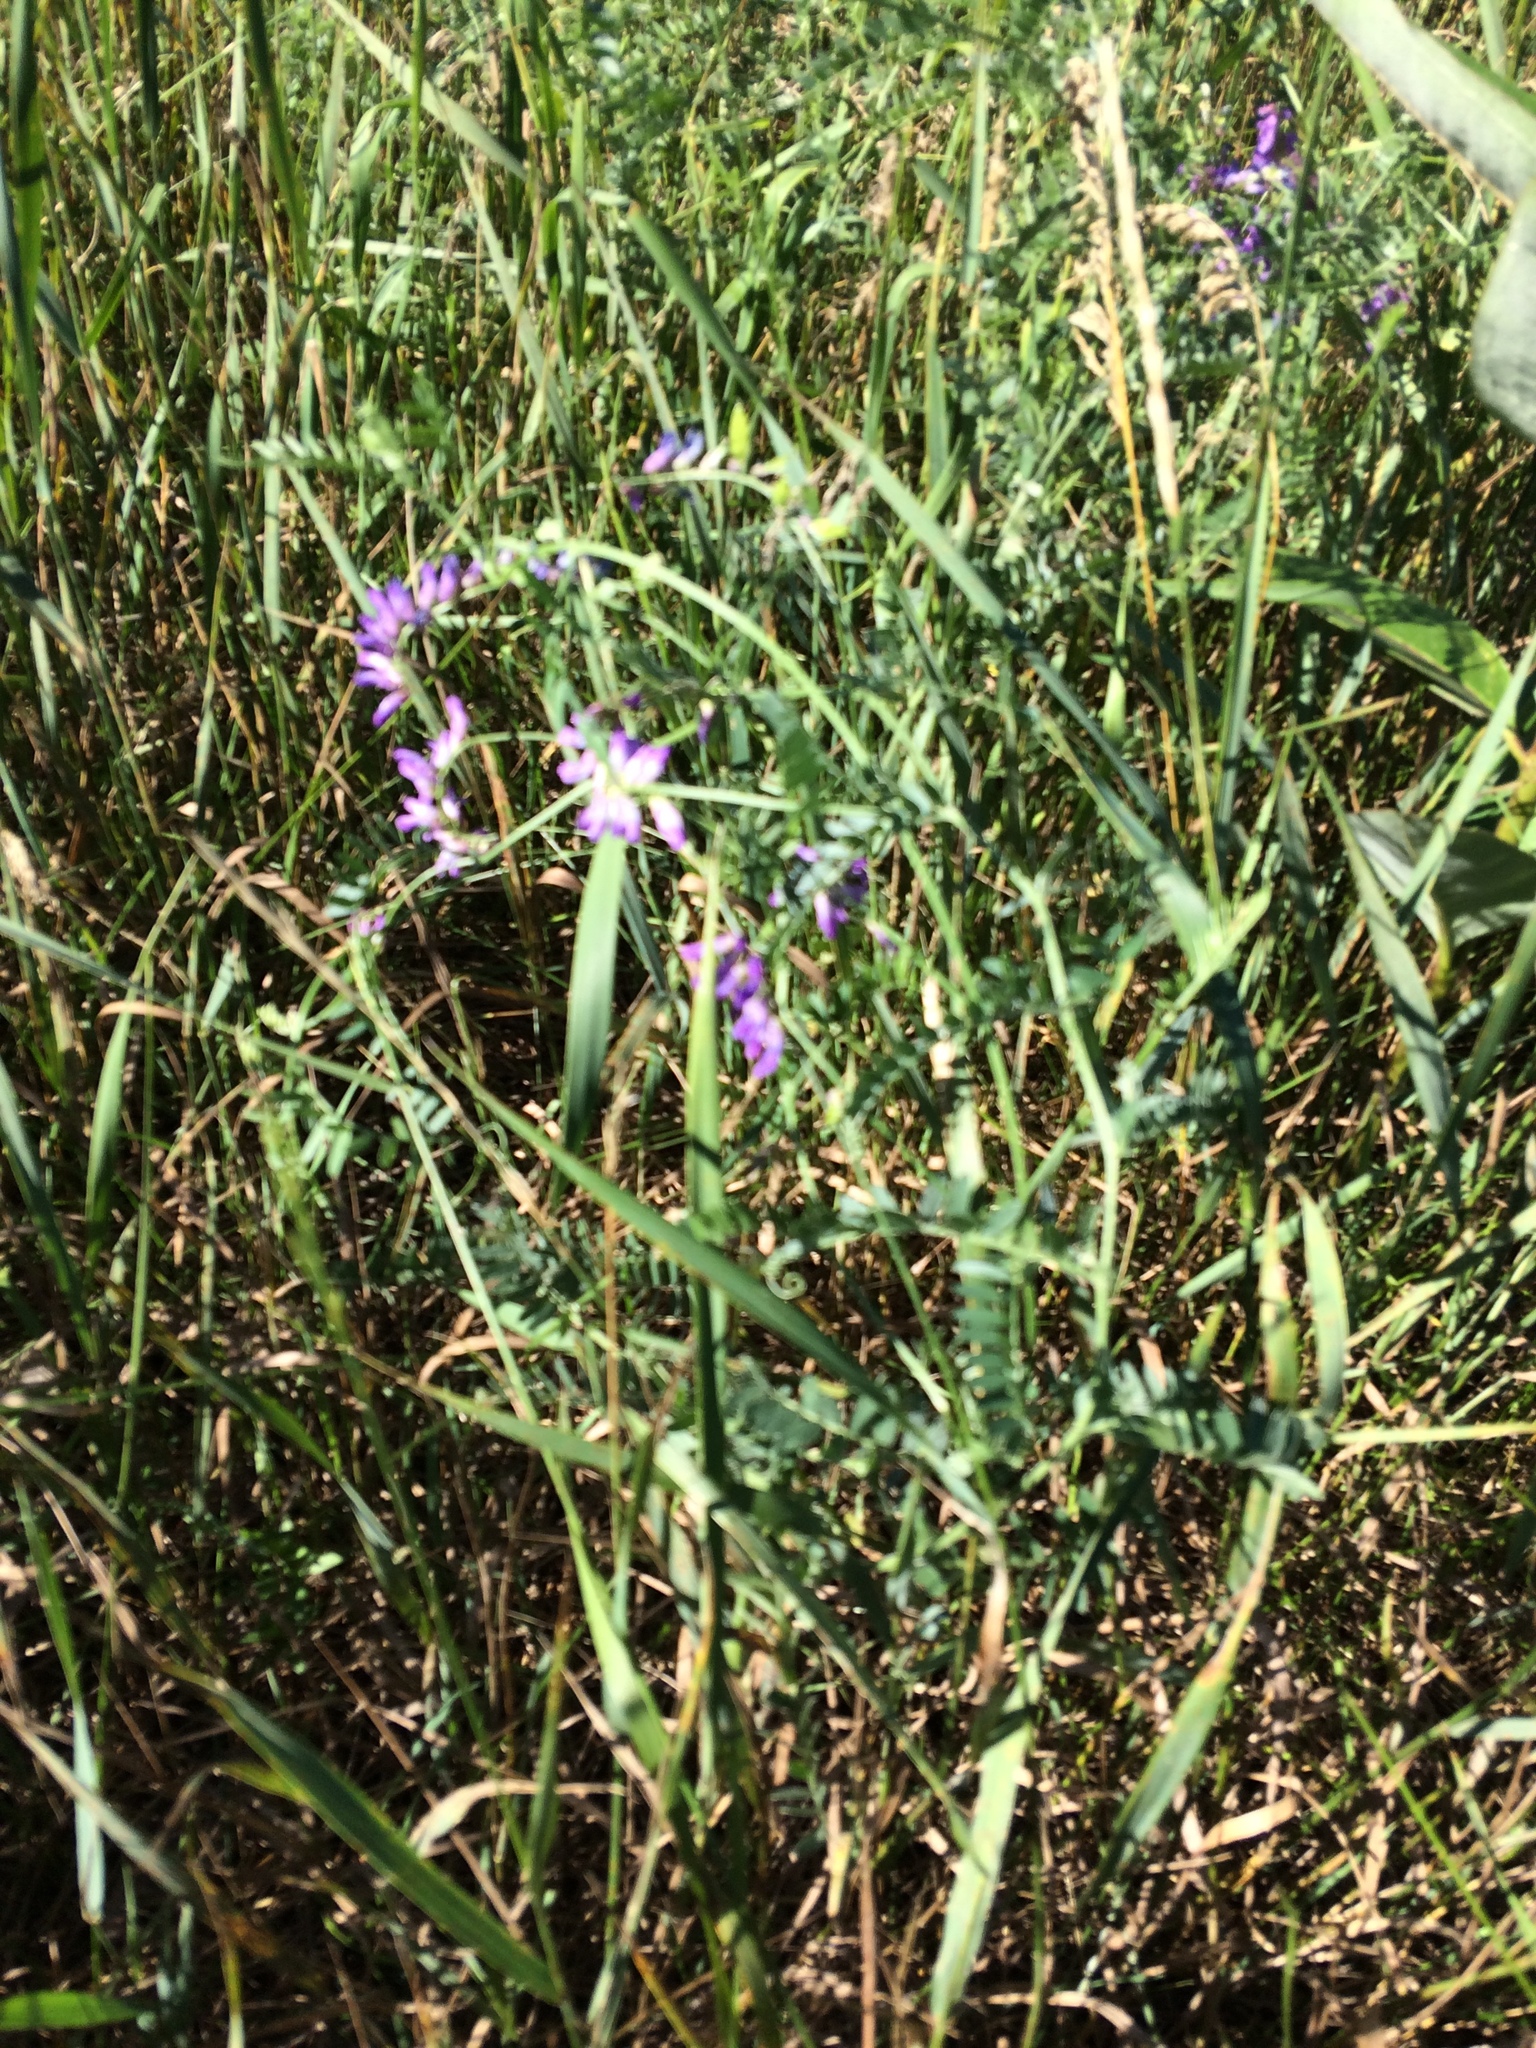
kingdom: Plantae
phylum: Tracheophyta
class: Magnoliopsida
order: Fabales
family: Fabaceae
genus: Vicia
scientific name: Vicia cracca
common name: Bird vetch
